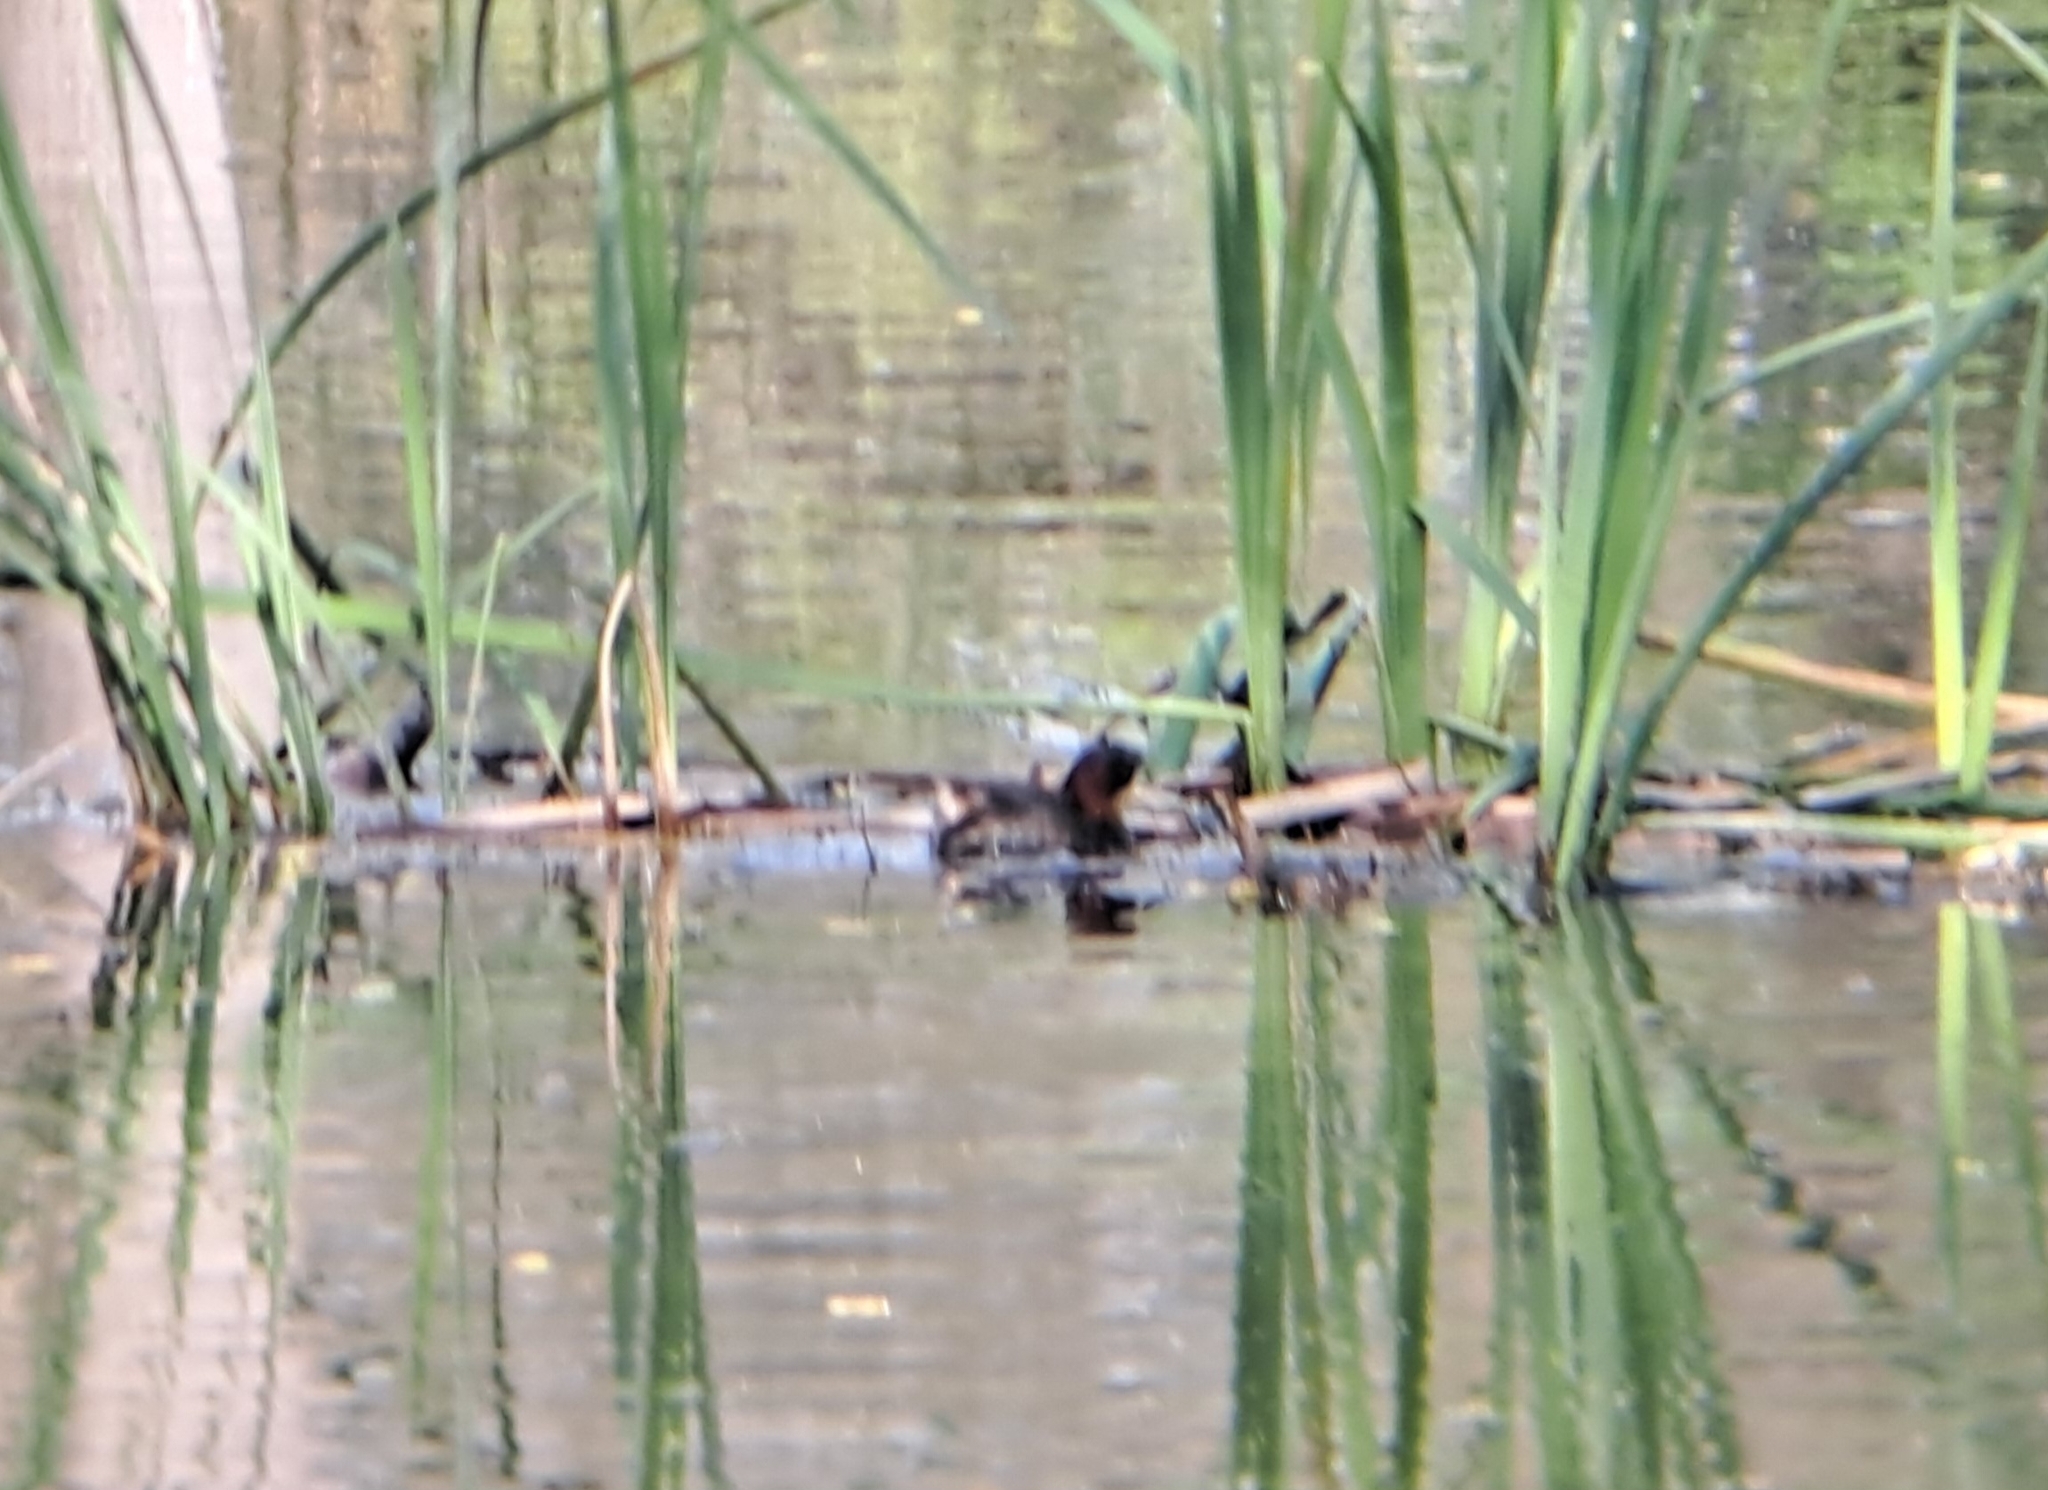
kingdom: Animalia
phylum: Chordata
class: Aves
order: Podicipediformes
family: Podicipedidae
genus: Tachybaptus
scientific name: Tachybaptus ruficollis
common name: Little grebe
